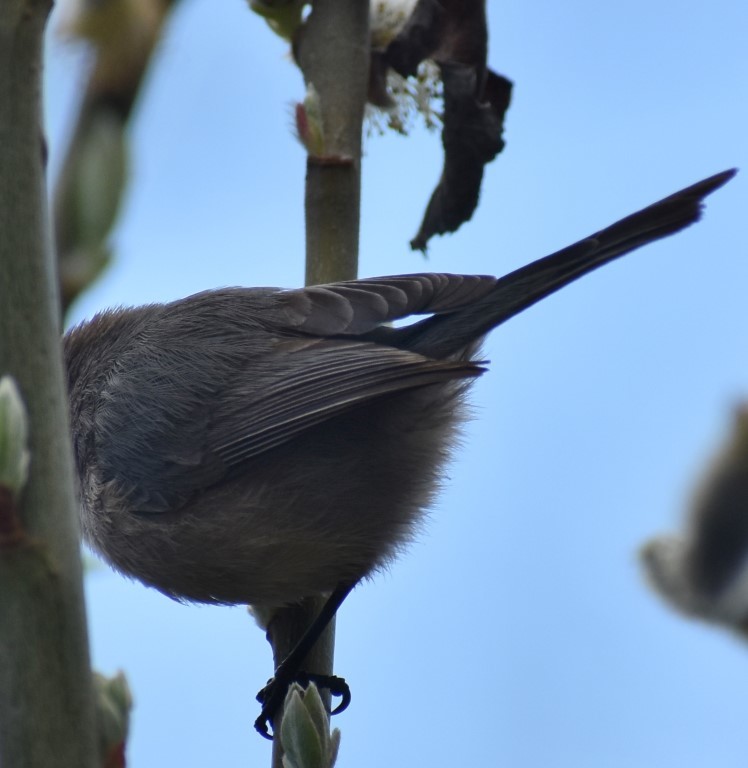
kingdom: Animalia
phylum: Chordata
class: Aves
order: Passeriformes
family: Aegithalidae
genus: Psaltriparus
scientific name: Psaltriparus minimus
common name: American bushtit
